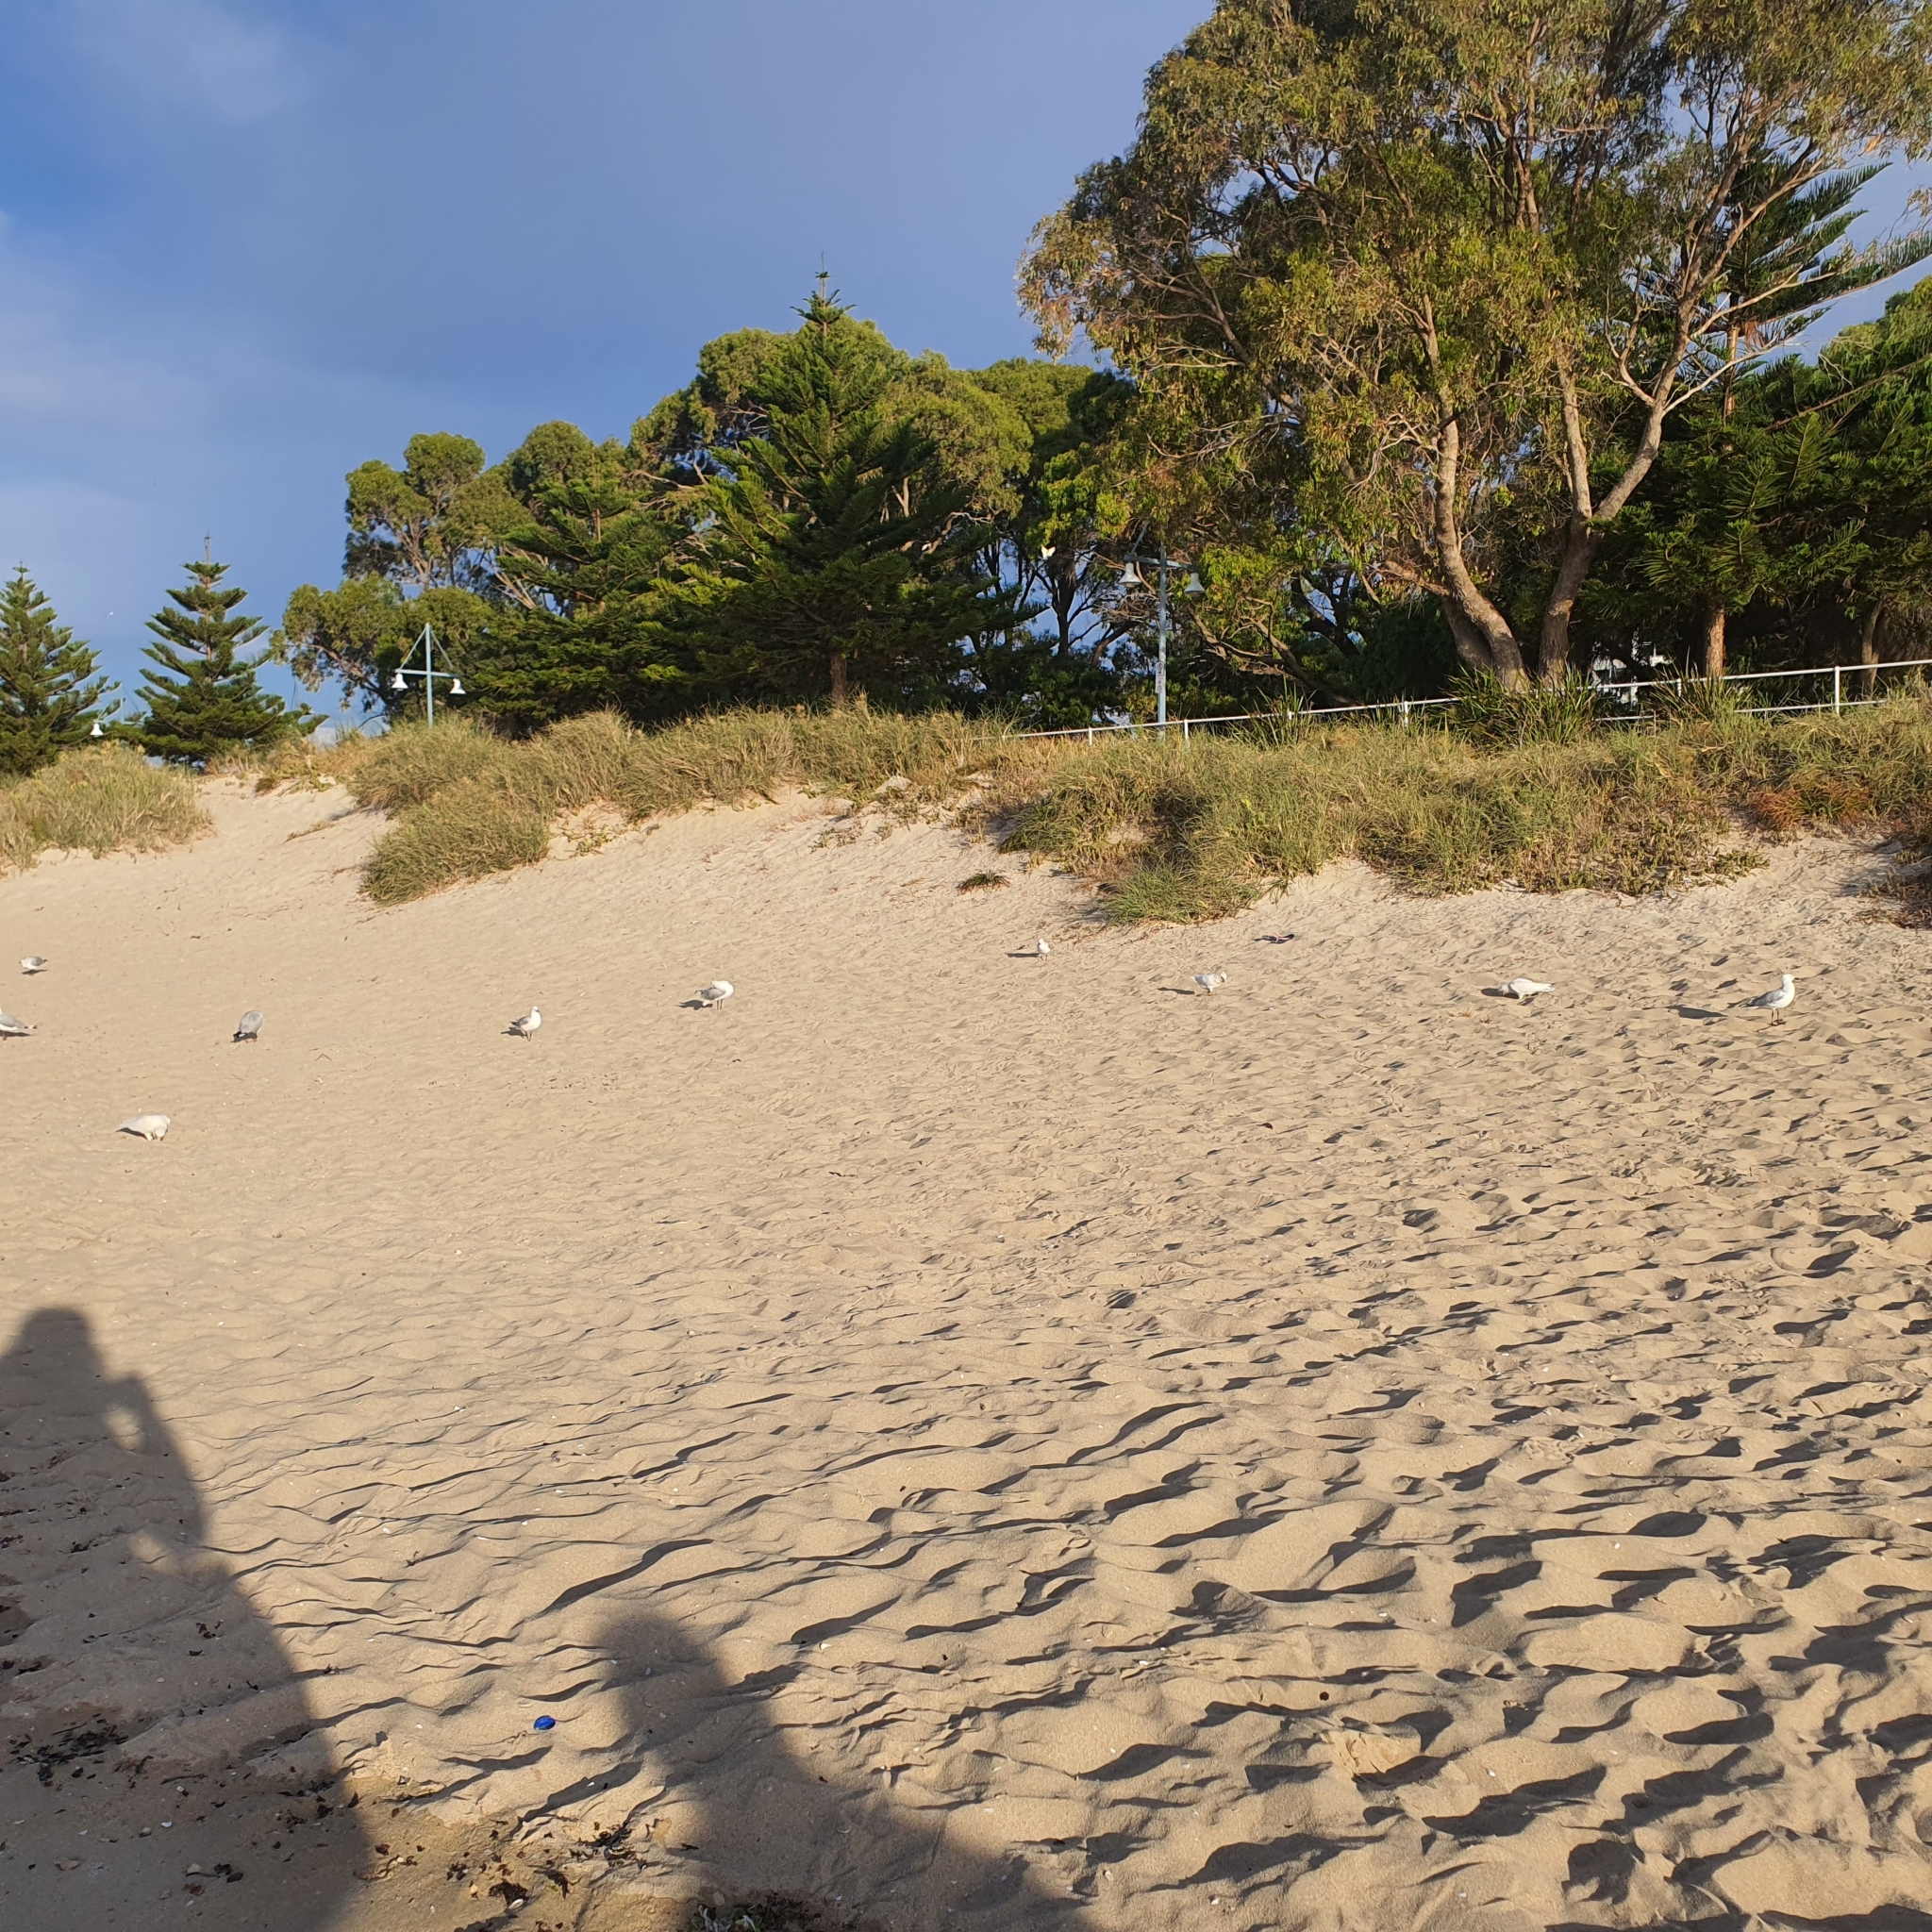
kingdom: Animalia
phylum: Chordata
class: Aves
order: Psittaciformes
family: Psittacidae
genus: Cacatua
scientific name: Cacatua sanguinea
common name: Little corella
